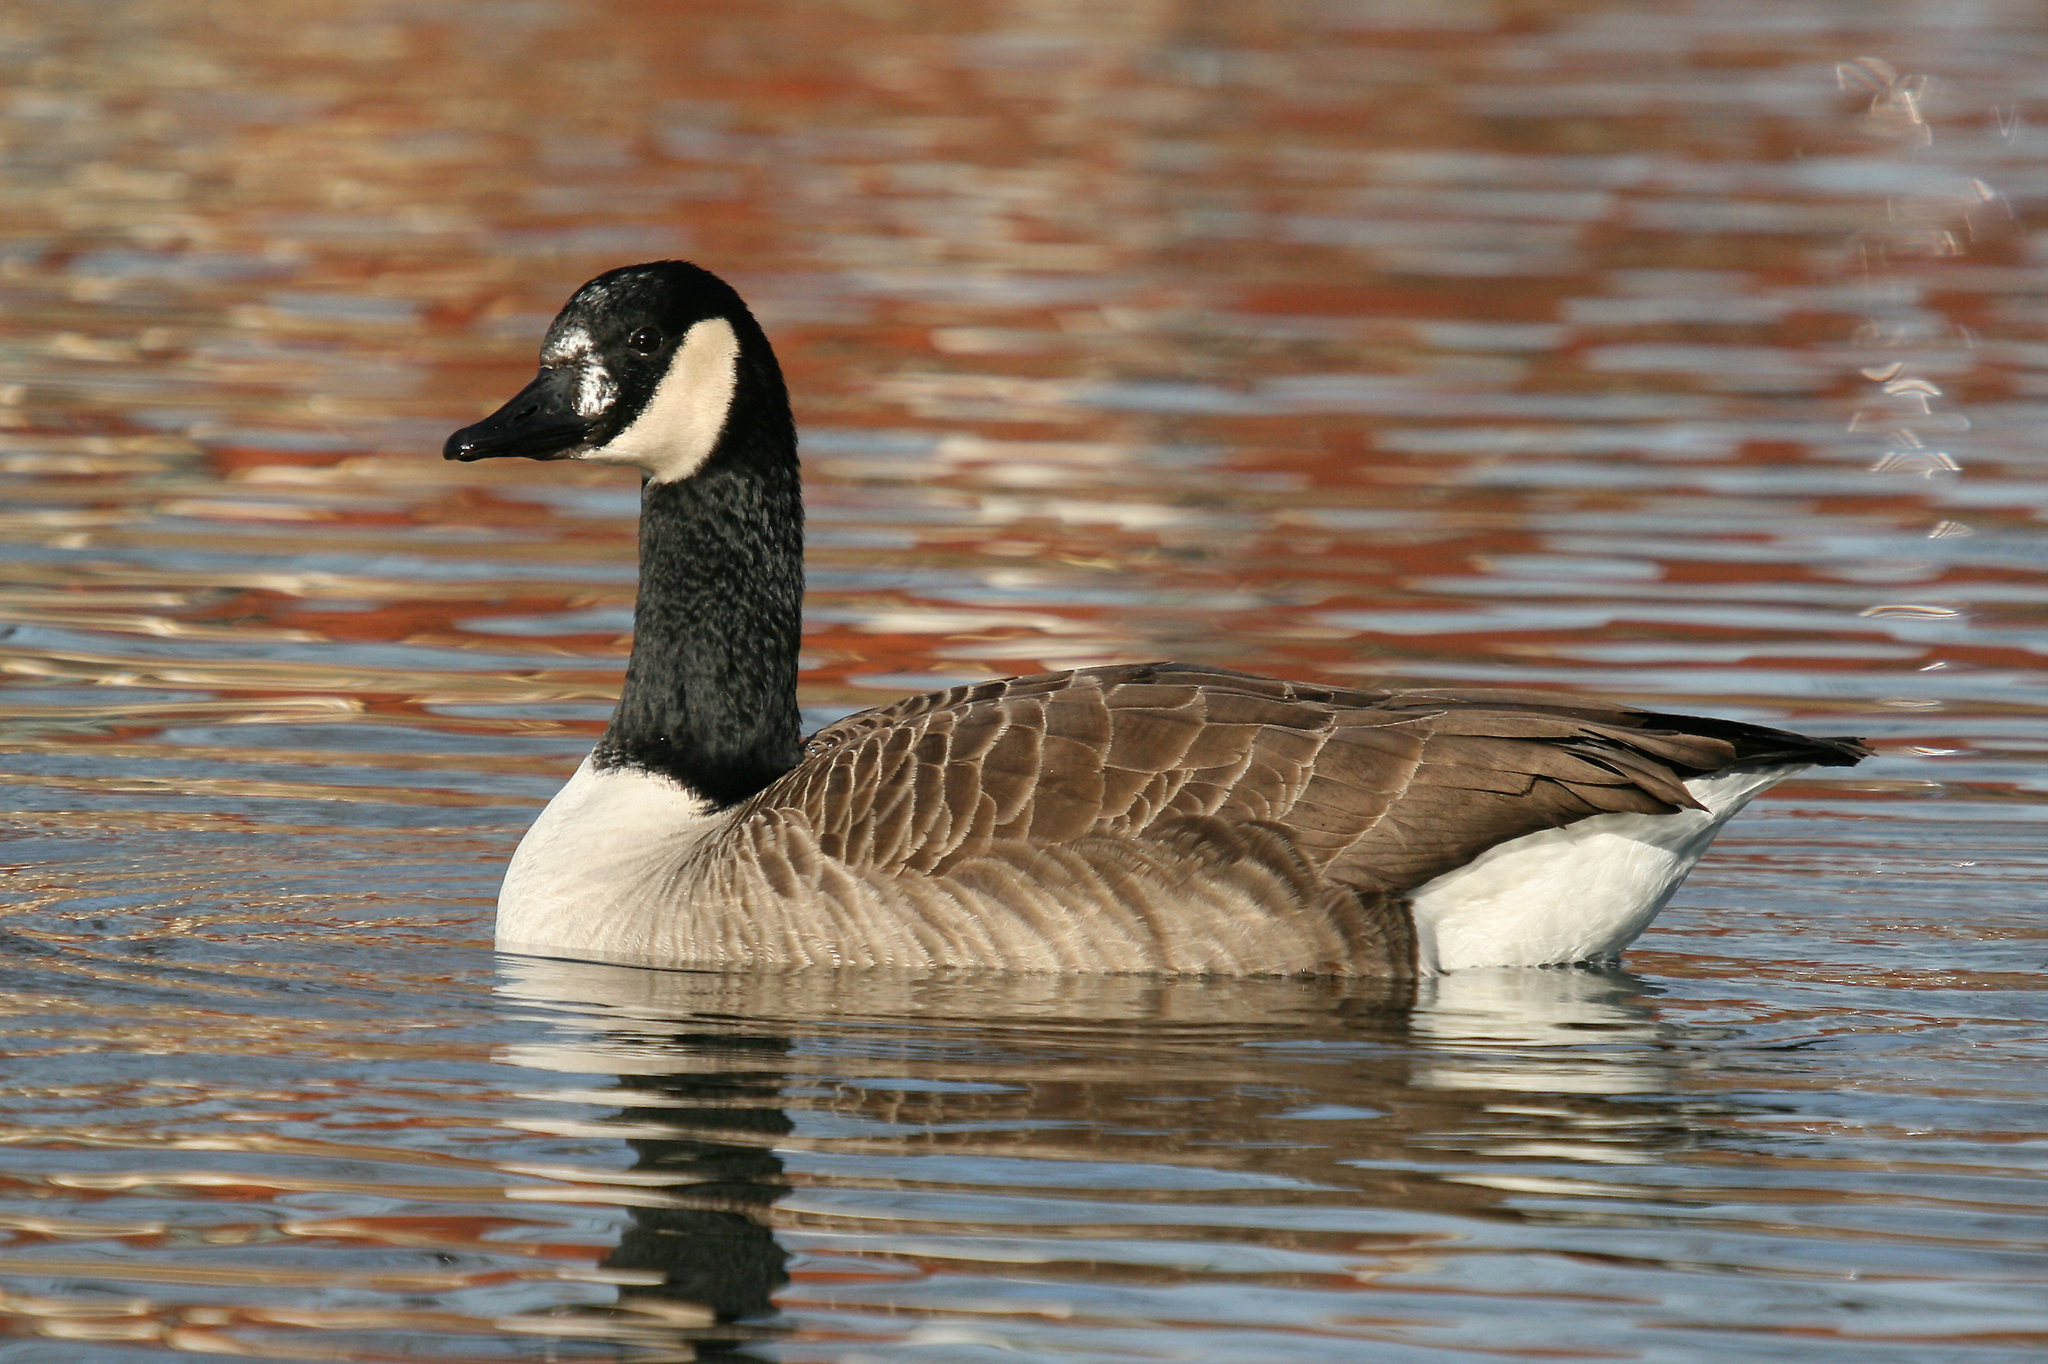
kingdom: Animalia
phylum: Chordata
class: Aves
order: Anseriformes
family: Anatidae
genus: Branta
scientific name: Branta canadensis
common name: Canada goose
